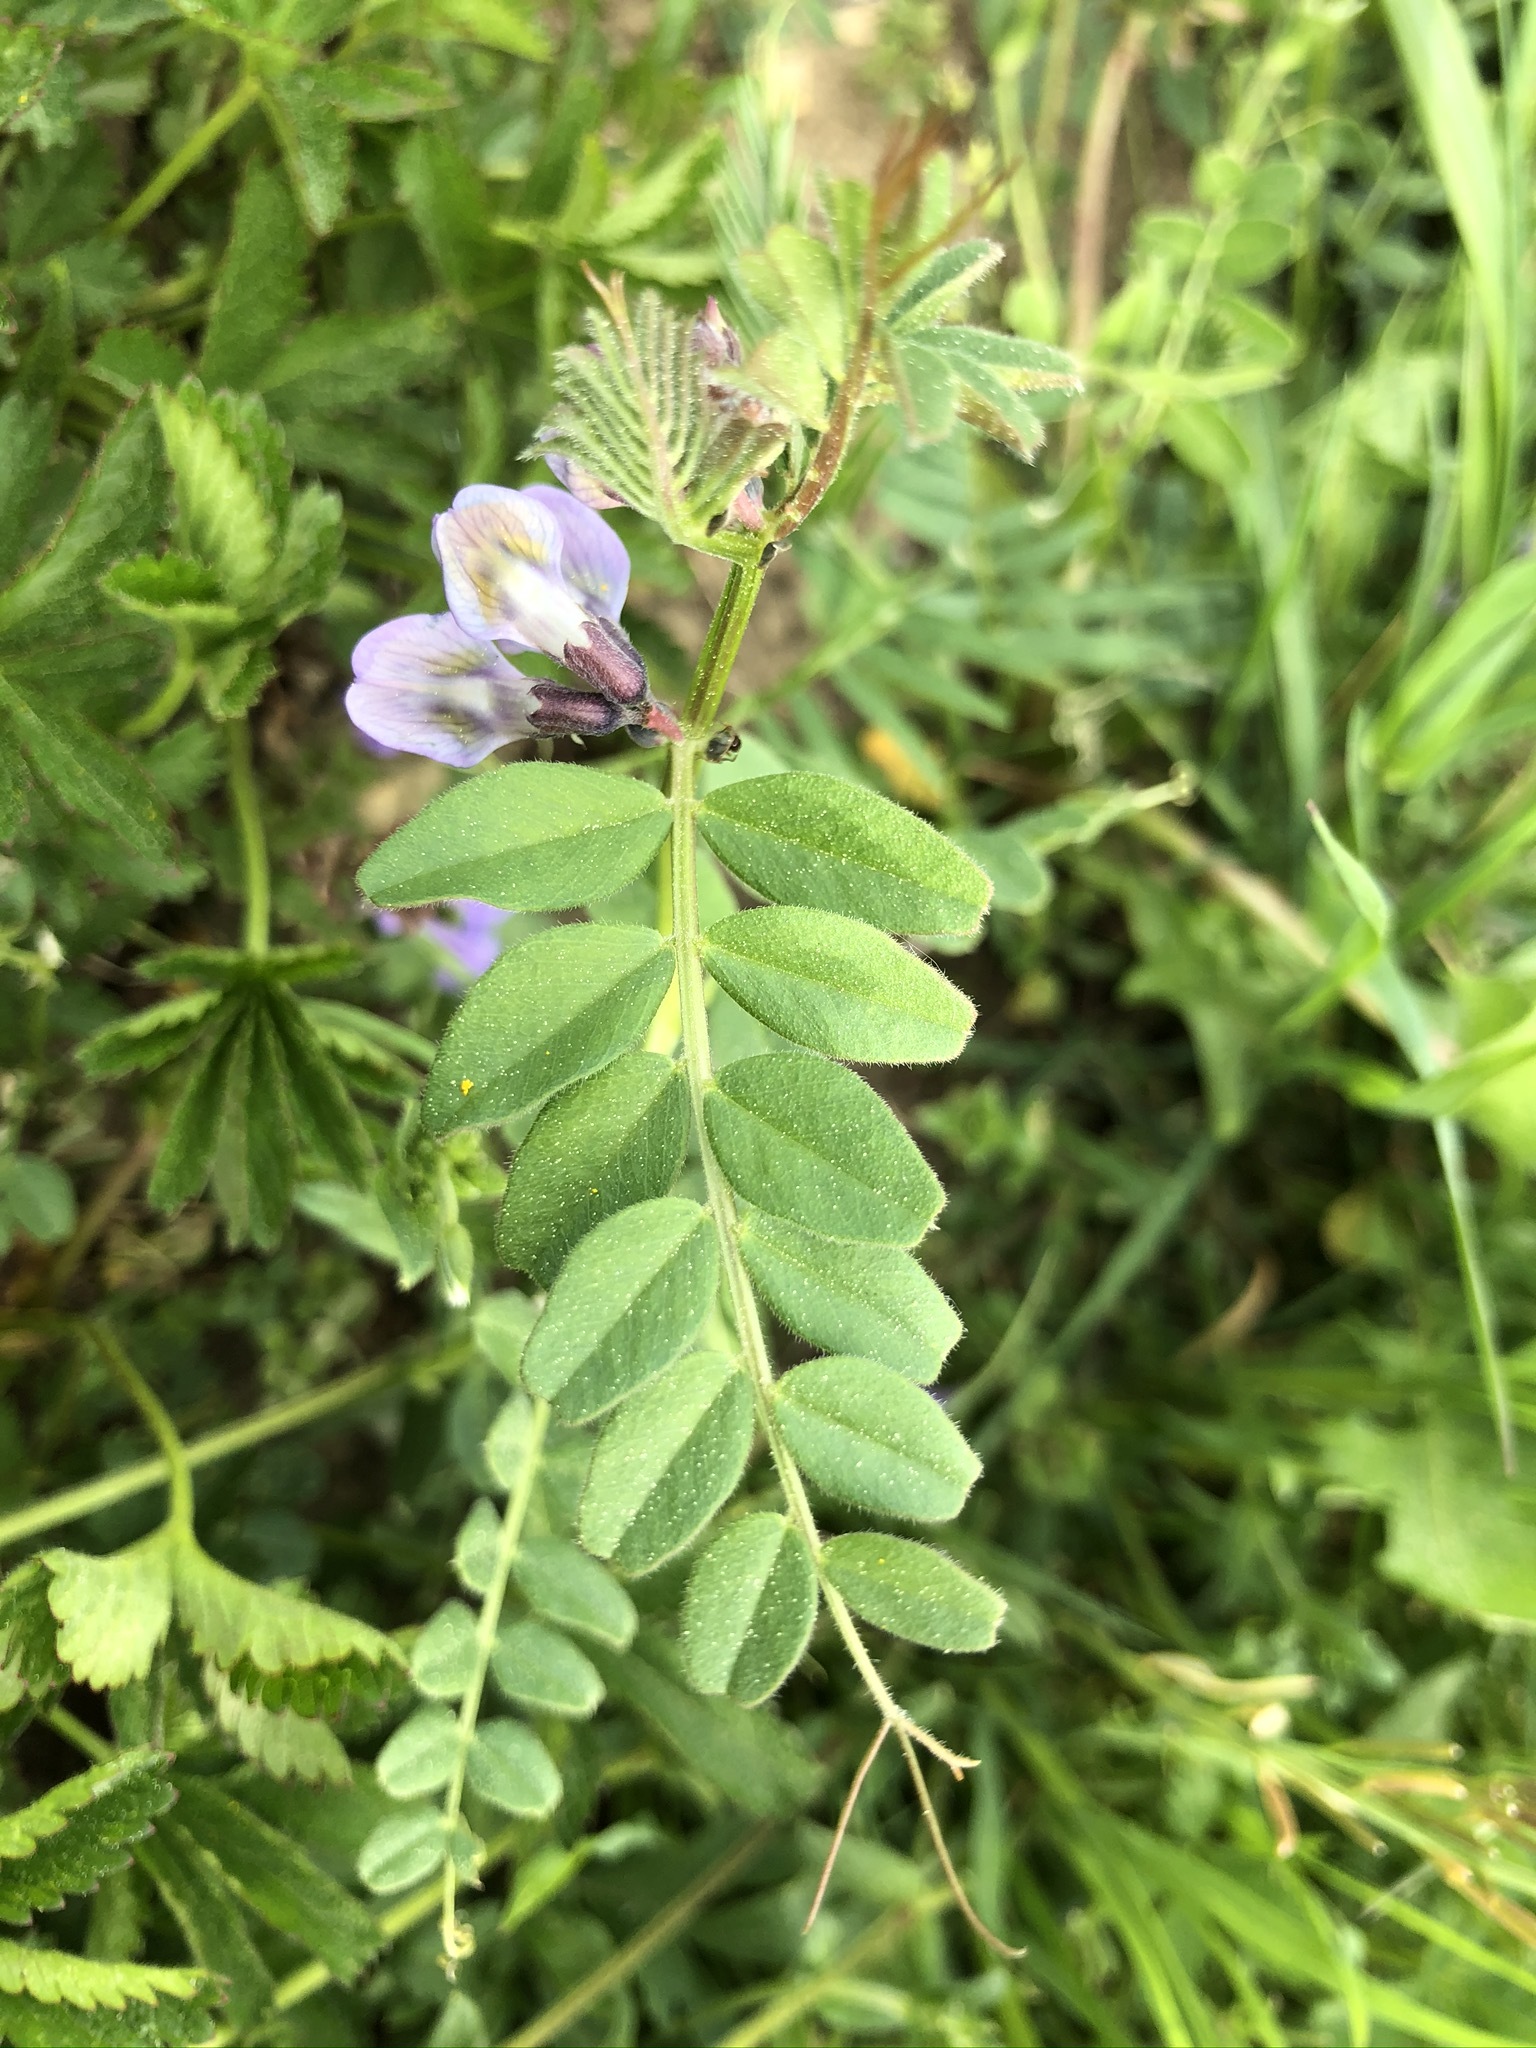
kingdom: Plantae
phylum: Tracheophyta
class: Magnoliopsida
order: Fabales
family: Fabaceae
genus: Vicia
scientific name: Vicia sepium
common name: Bush vetch
